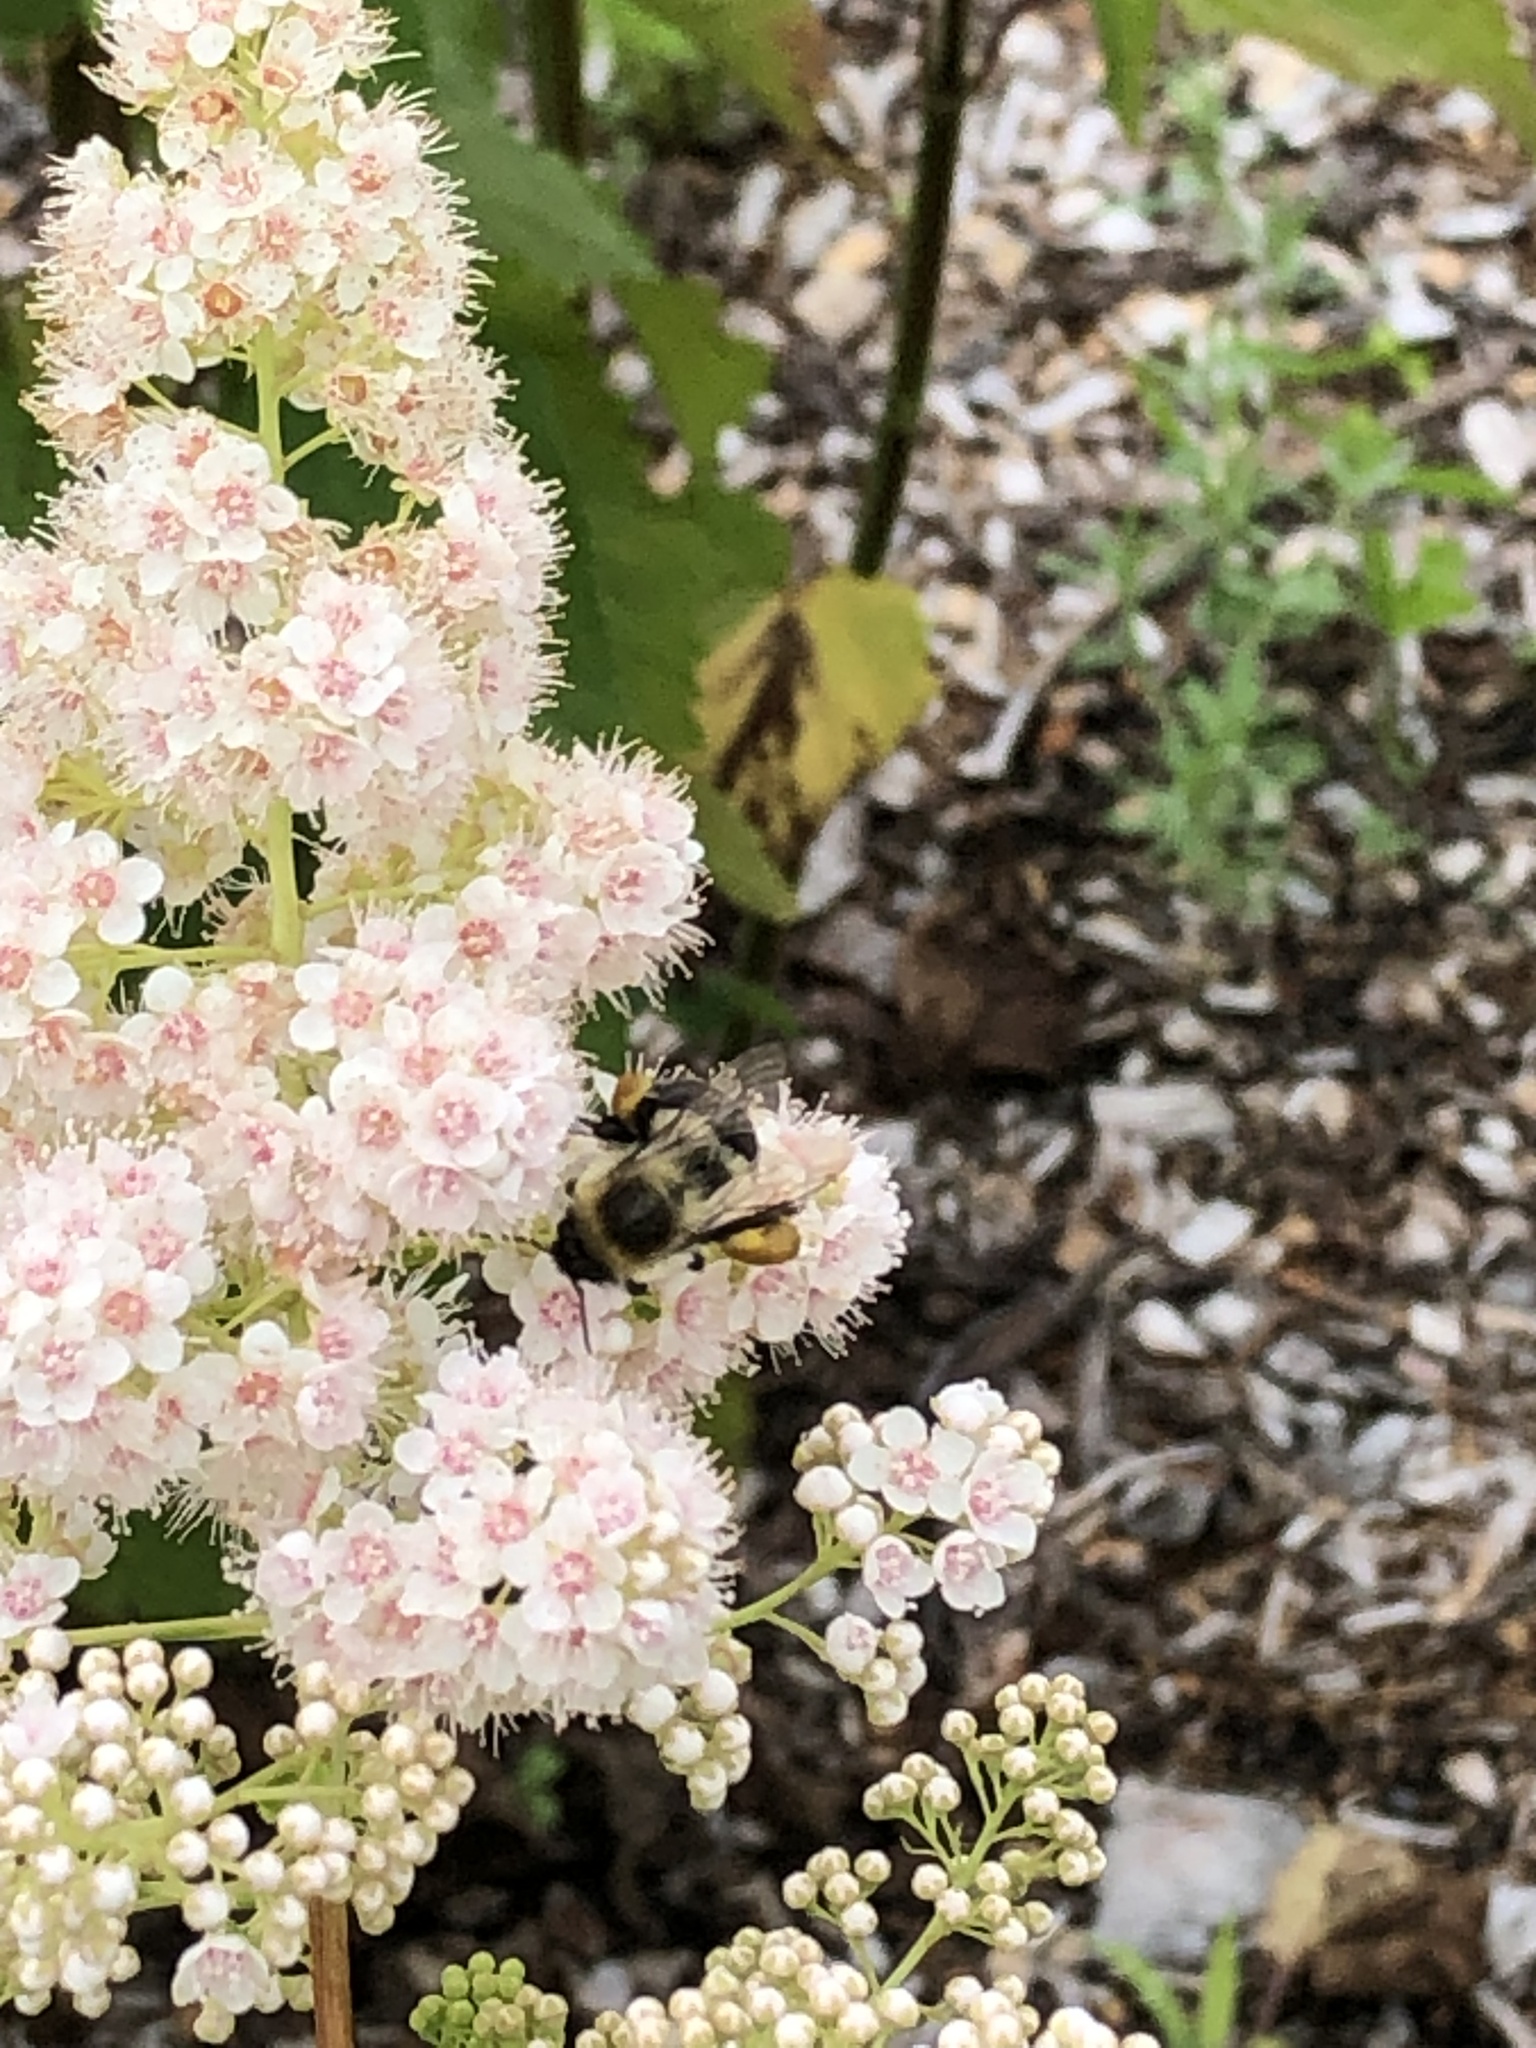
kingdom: Animalia
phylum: Arthropoda
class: Insecta
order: Hymenoptera
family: Apidae
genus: Bombus
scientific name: Bombus impatiens
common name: Common eastern bumble bee
